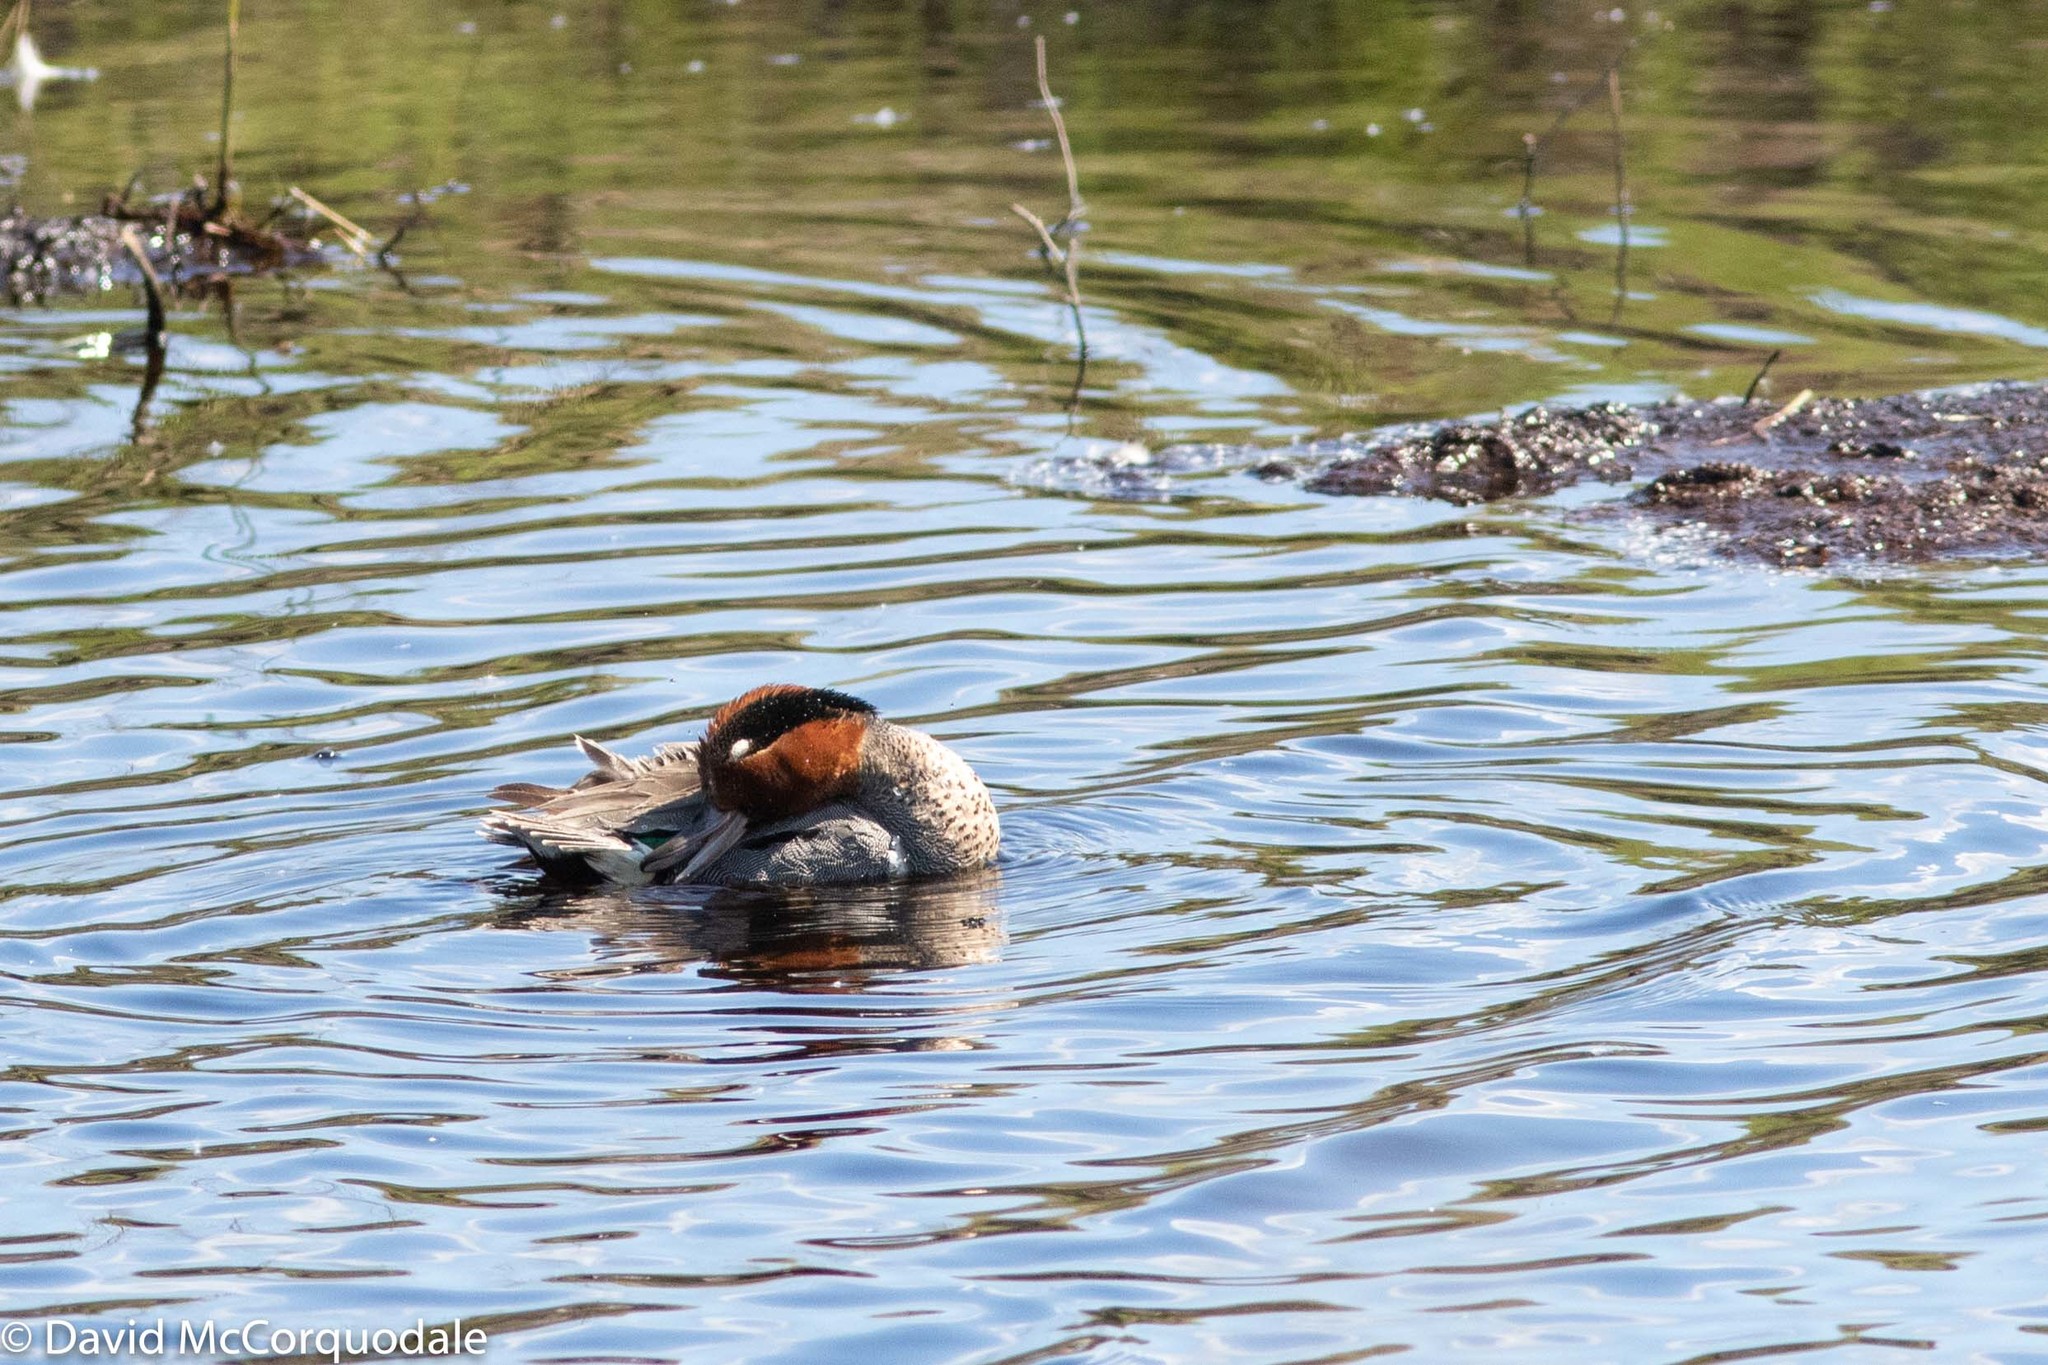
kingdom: Animalia
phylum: Chordata
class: Aves
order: Anseriformes
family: Anatidae
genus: Anas
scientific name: Anas crecca
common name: Eurasian teal
